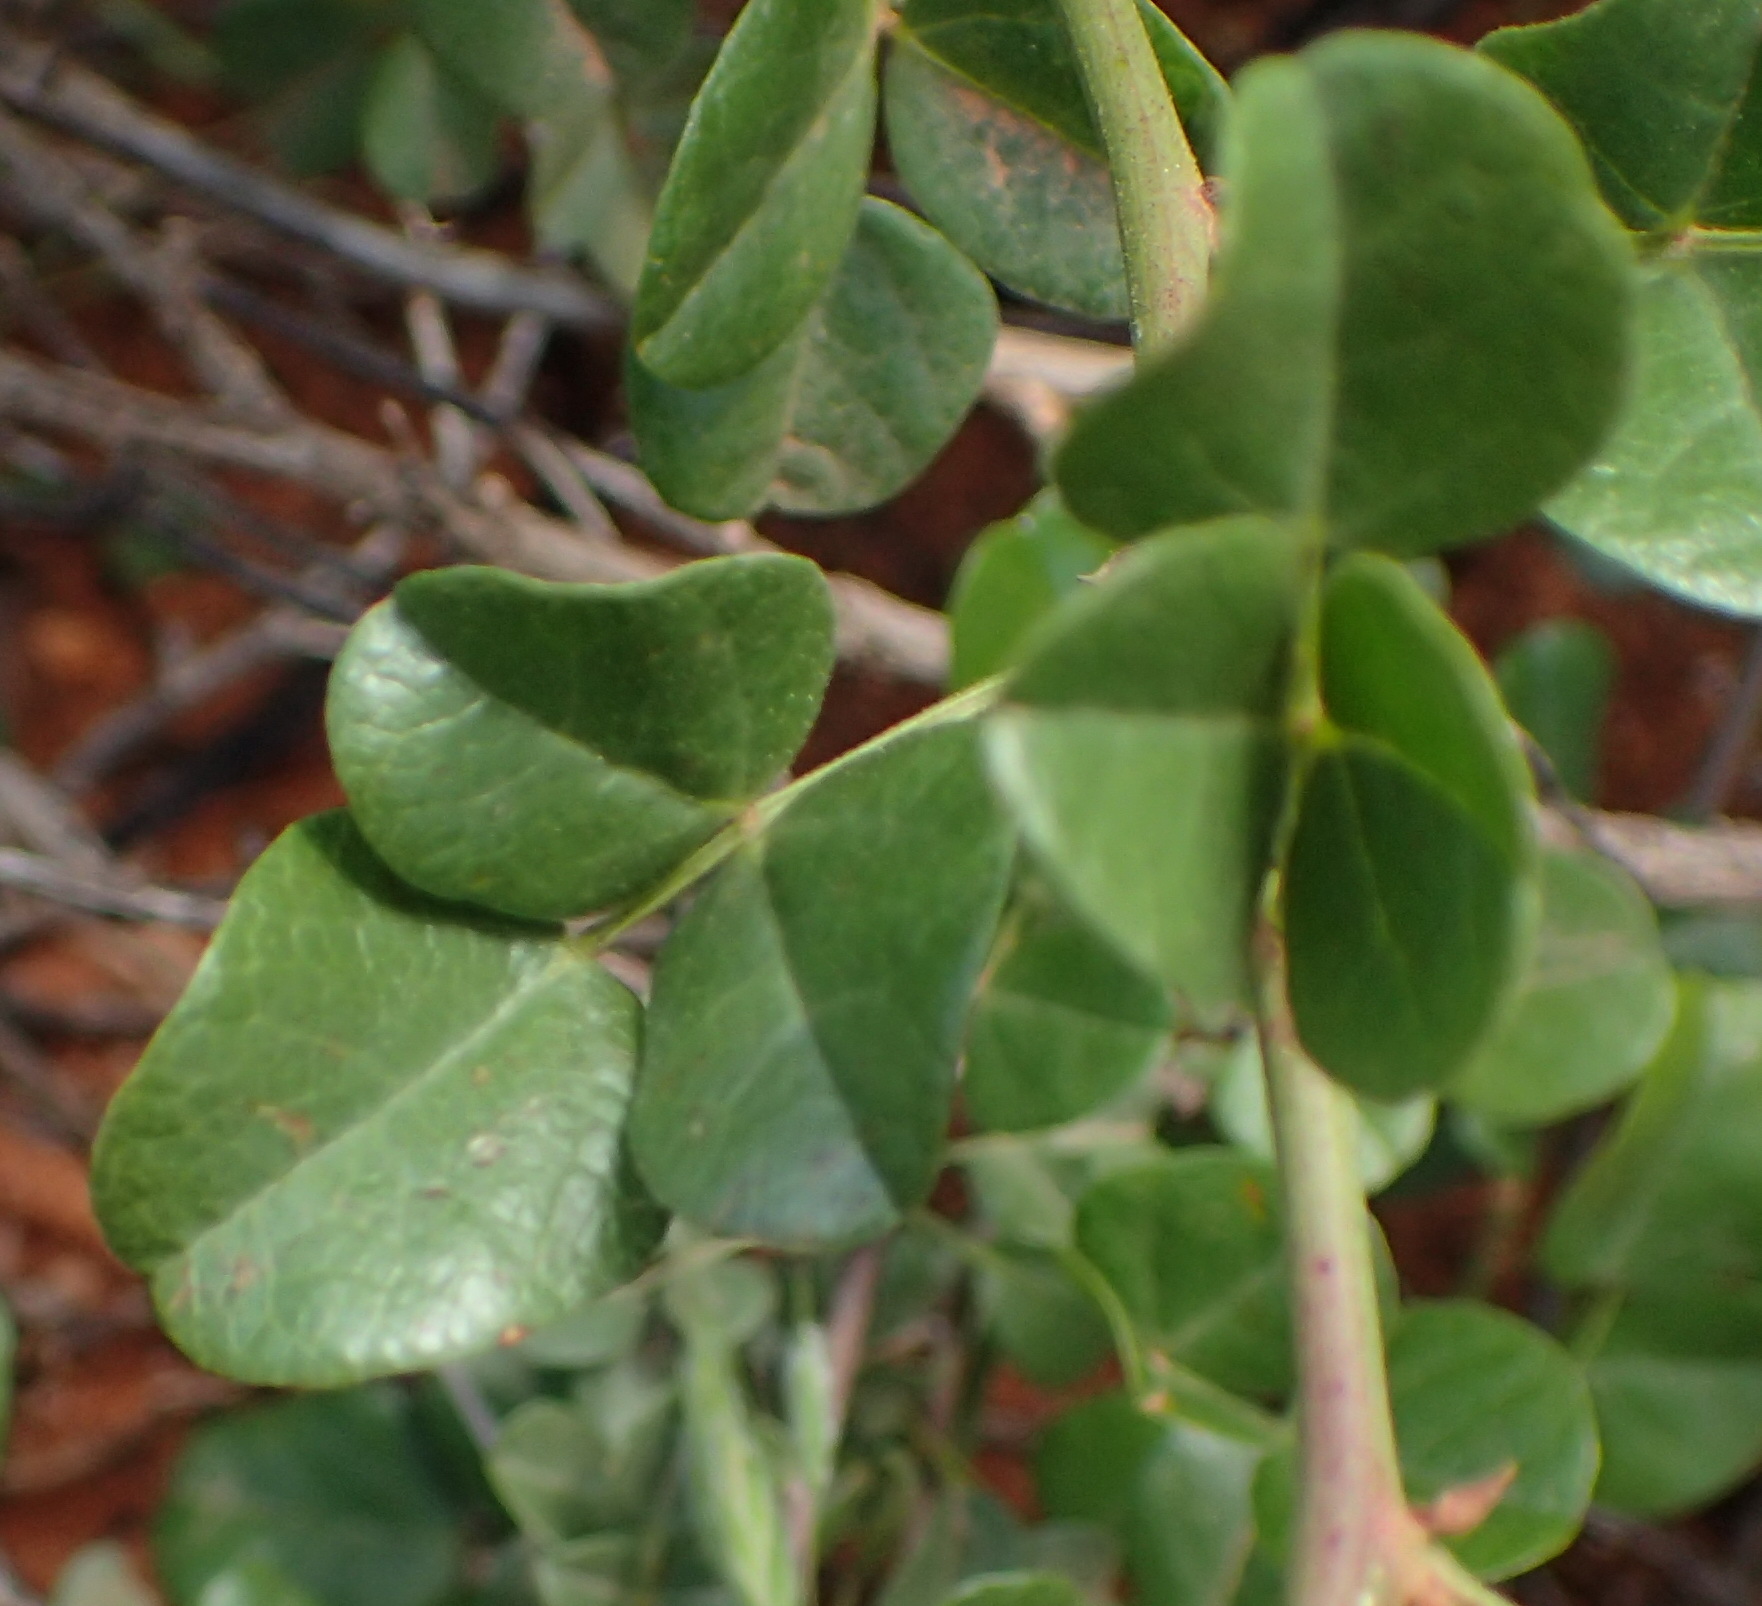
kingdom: Plantae
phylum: Tracheophyta
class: Magnoliopsida
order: Fabales
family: Fabaceae
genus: Rhynchosia
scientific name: Rhynchosia arida
